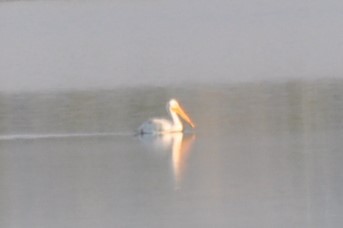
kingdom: Animalia
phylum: Chordata
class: Aves
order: Pelecaniformes
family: Pelecanidae
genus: Pelecanus
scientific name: Pelecanus erythrorhynchos
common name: American white pelican
